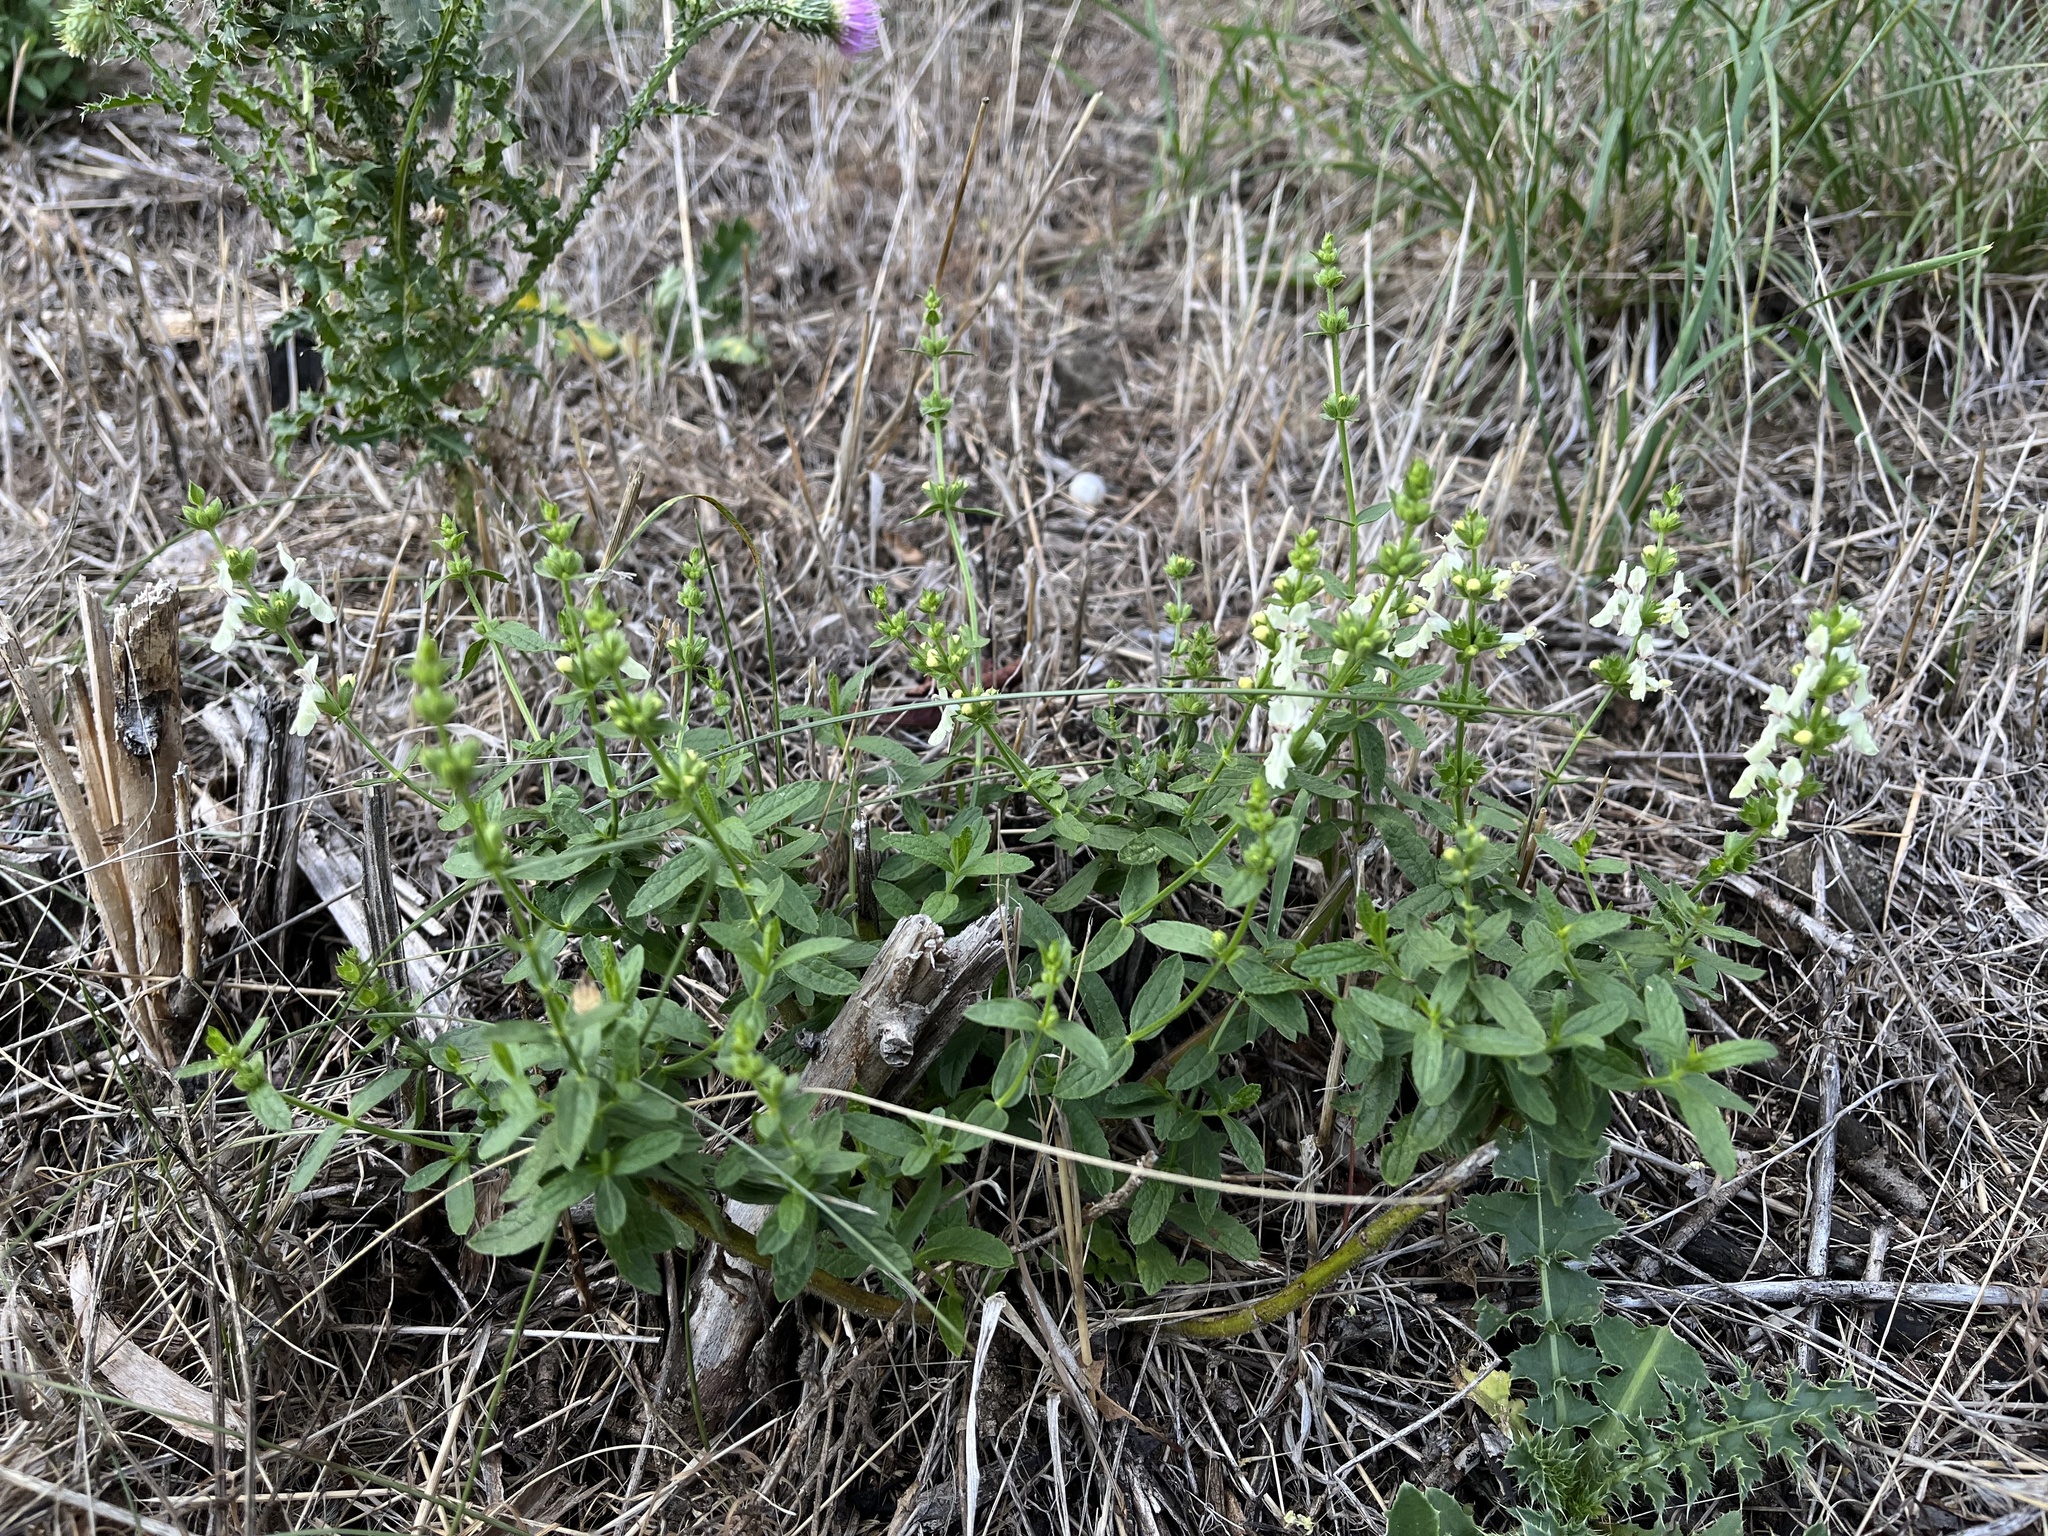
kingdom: Plantae
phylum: Tracheophyta
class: Magnoliopsida
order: Lamiales
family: Lamiaceae
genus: Stachys
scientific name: Stachys recta
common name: Perennial yellow-woundwort
